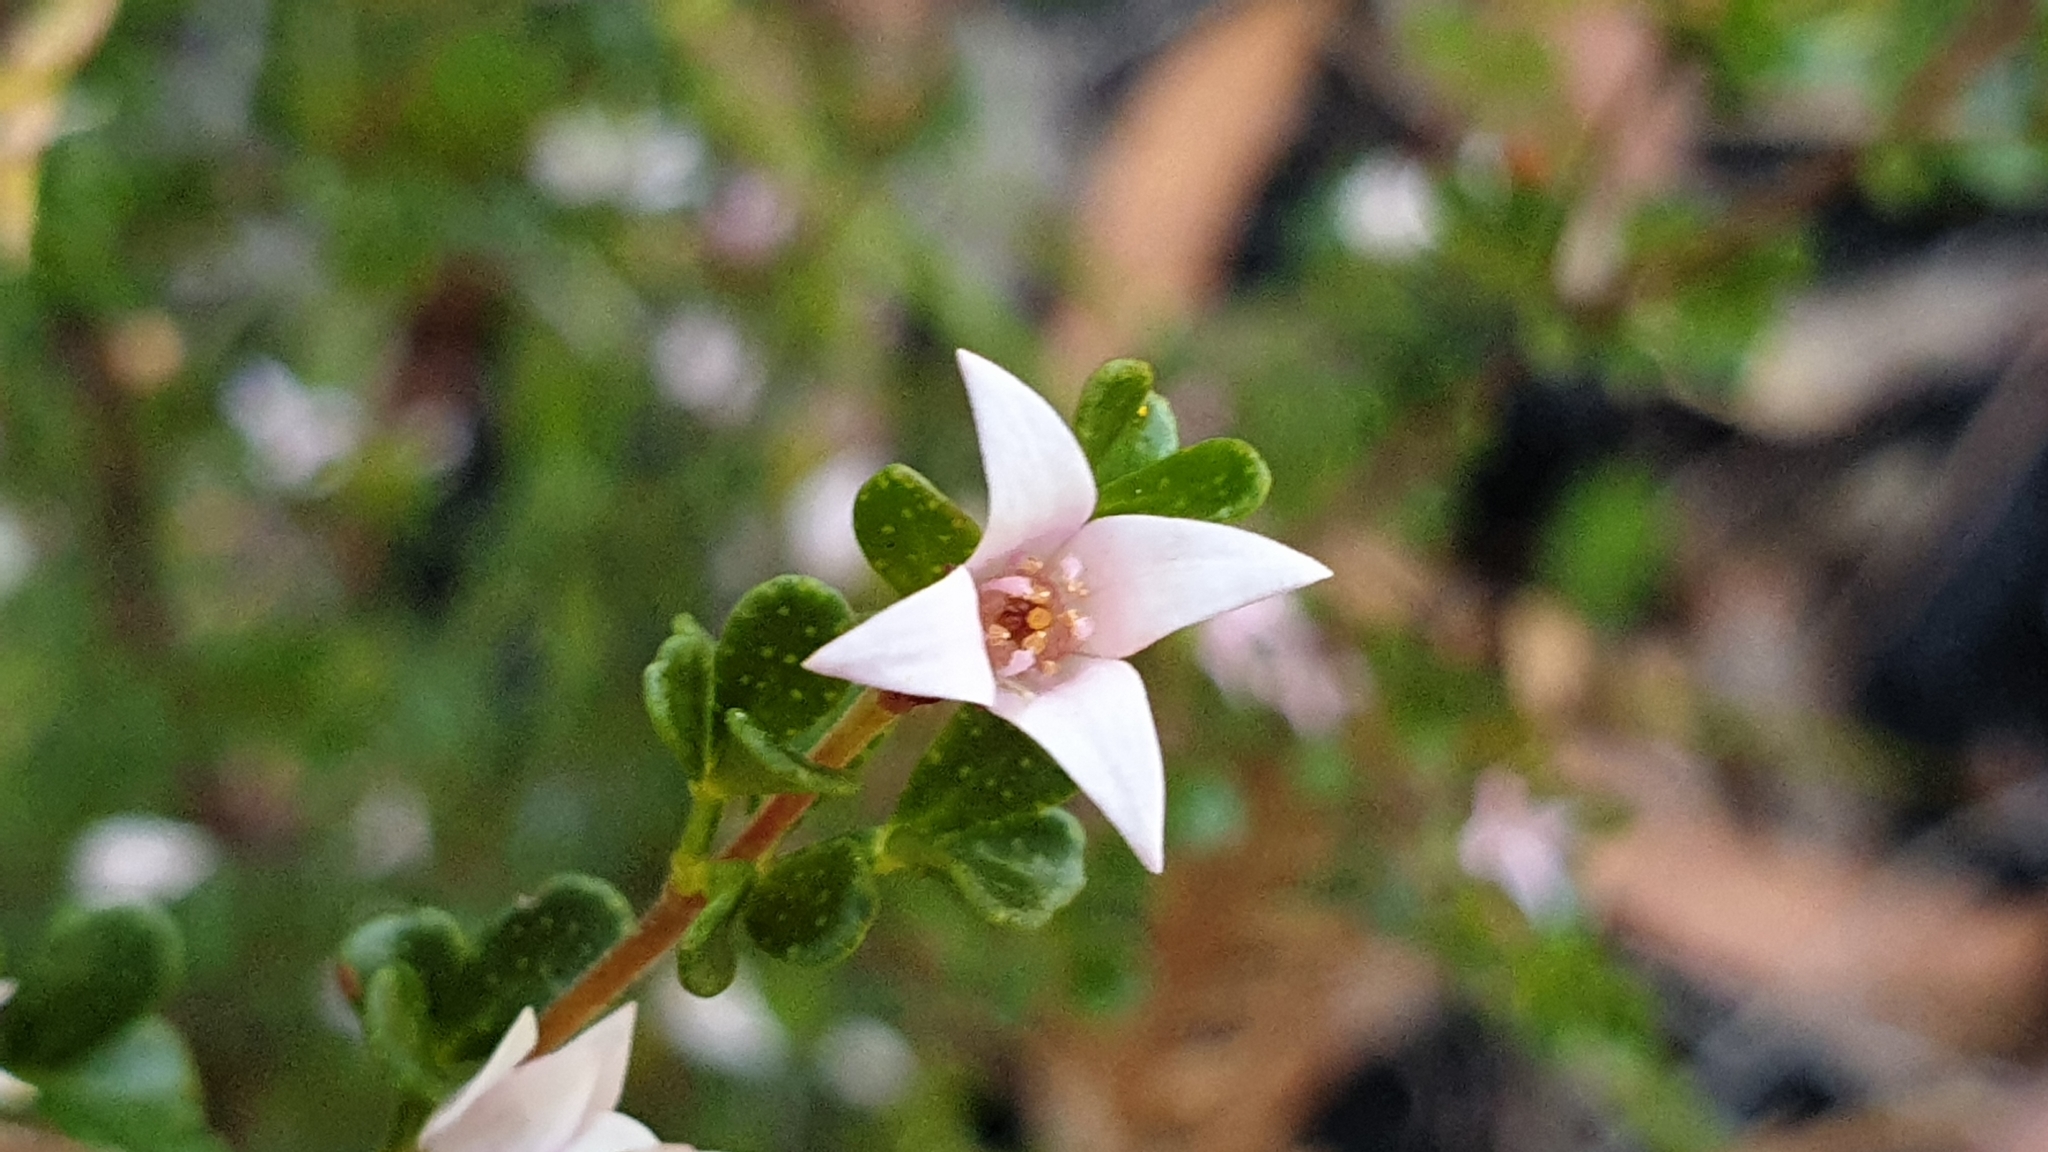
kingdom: Plantae
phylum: Tracheophyta
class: Magnoliopsida
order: Sapindales
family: Rutaceae
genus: Boronia
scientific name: Boronia algida
